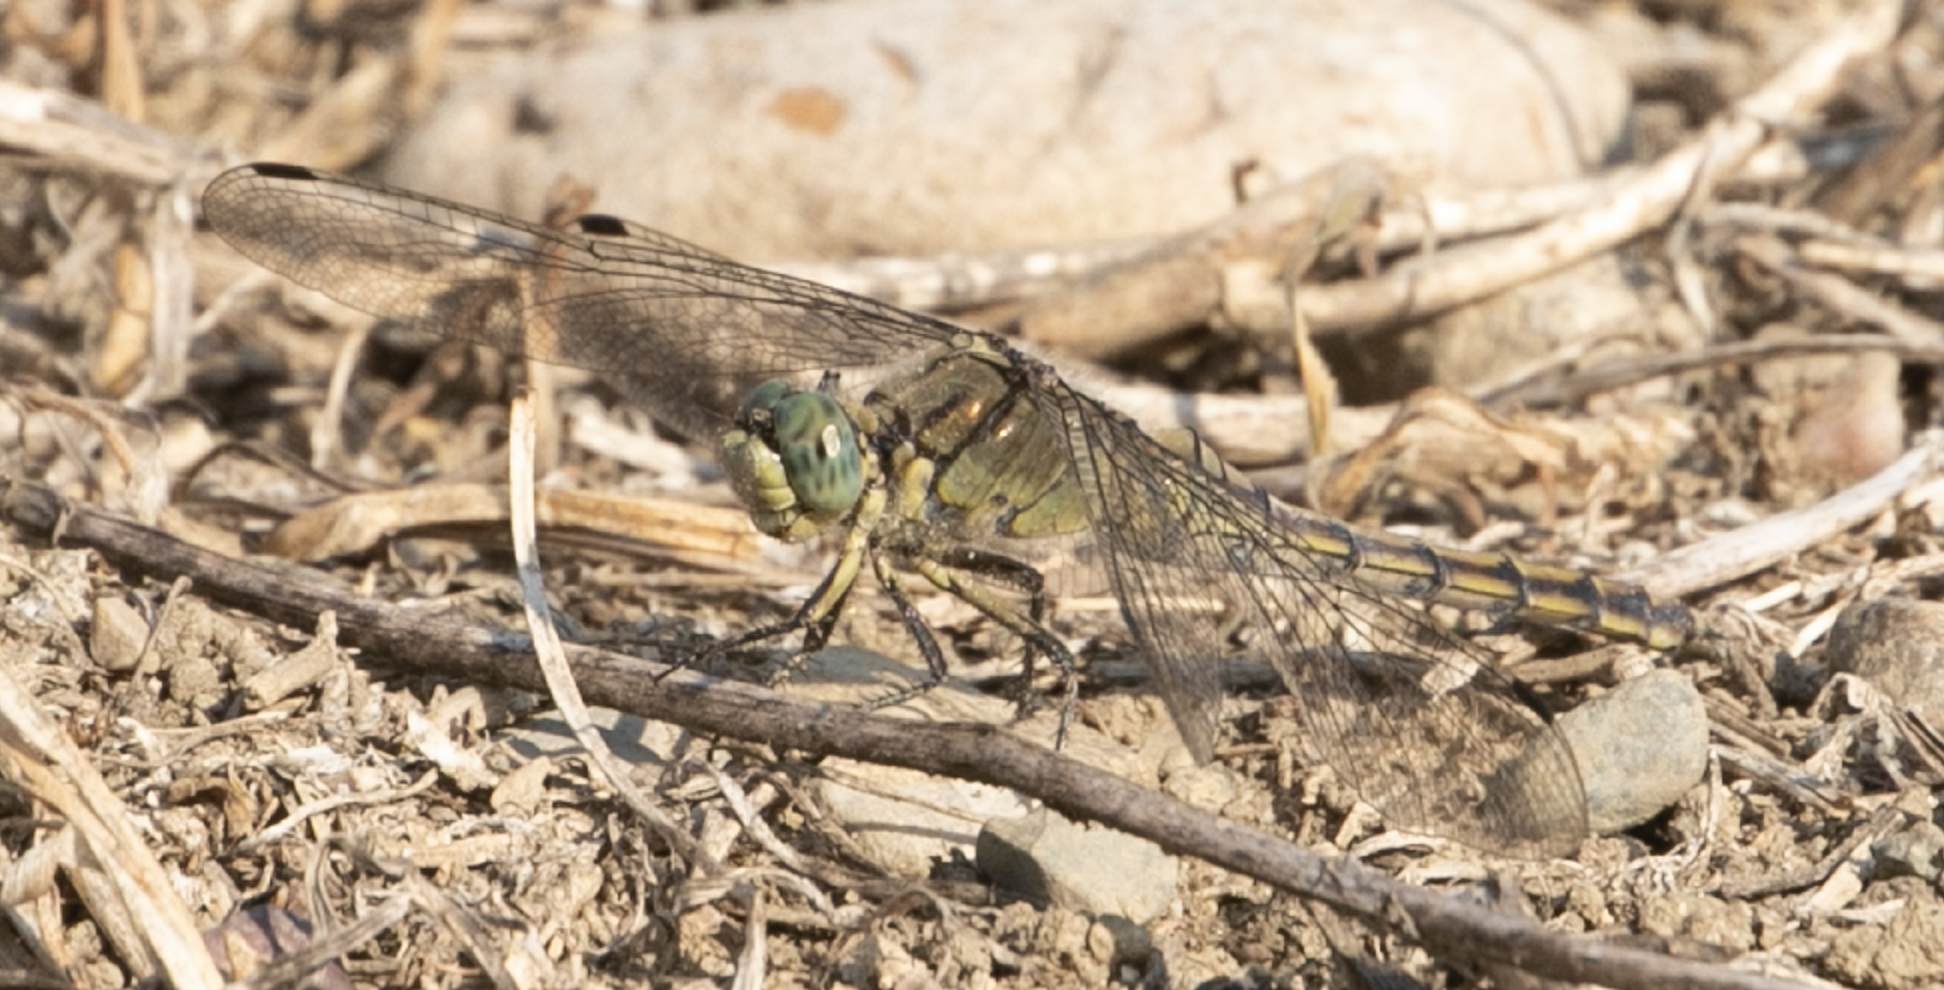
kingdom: Animalia
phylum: Arthropoda
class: Insecta
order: Odonata
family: Libellulidae
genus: Orthetrum
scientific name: Orthetrum cancellatum
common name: Black-tailed skimmer
